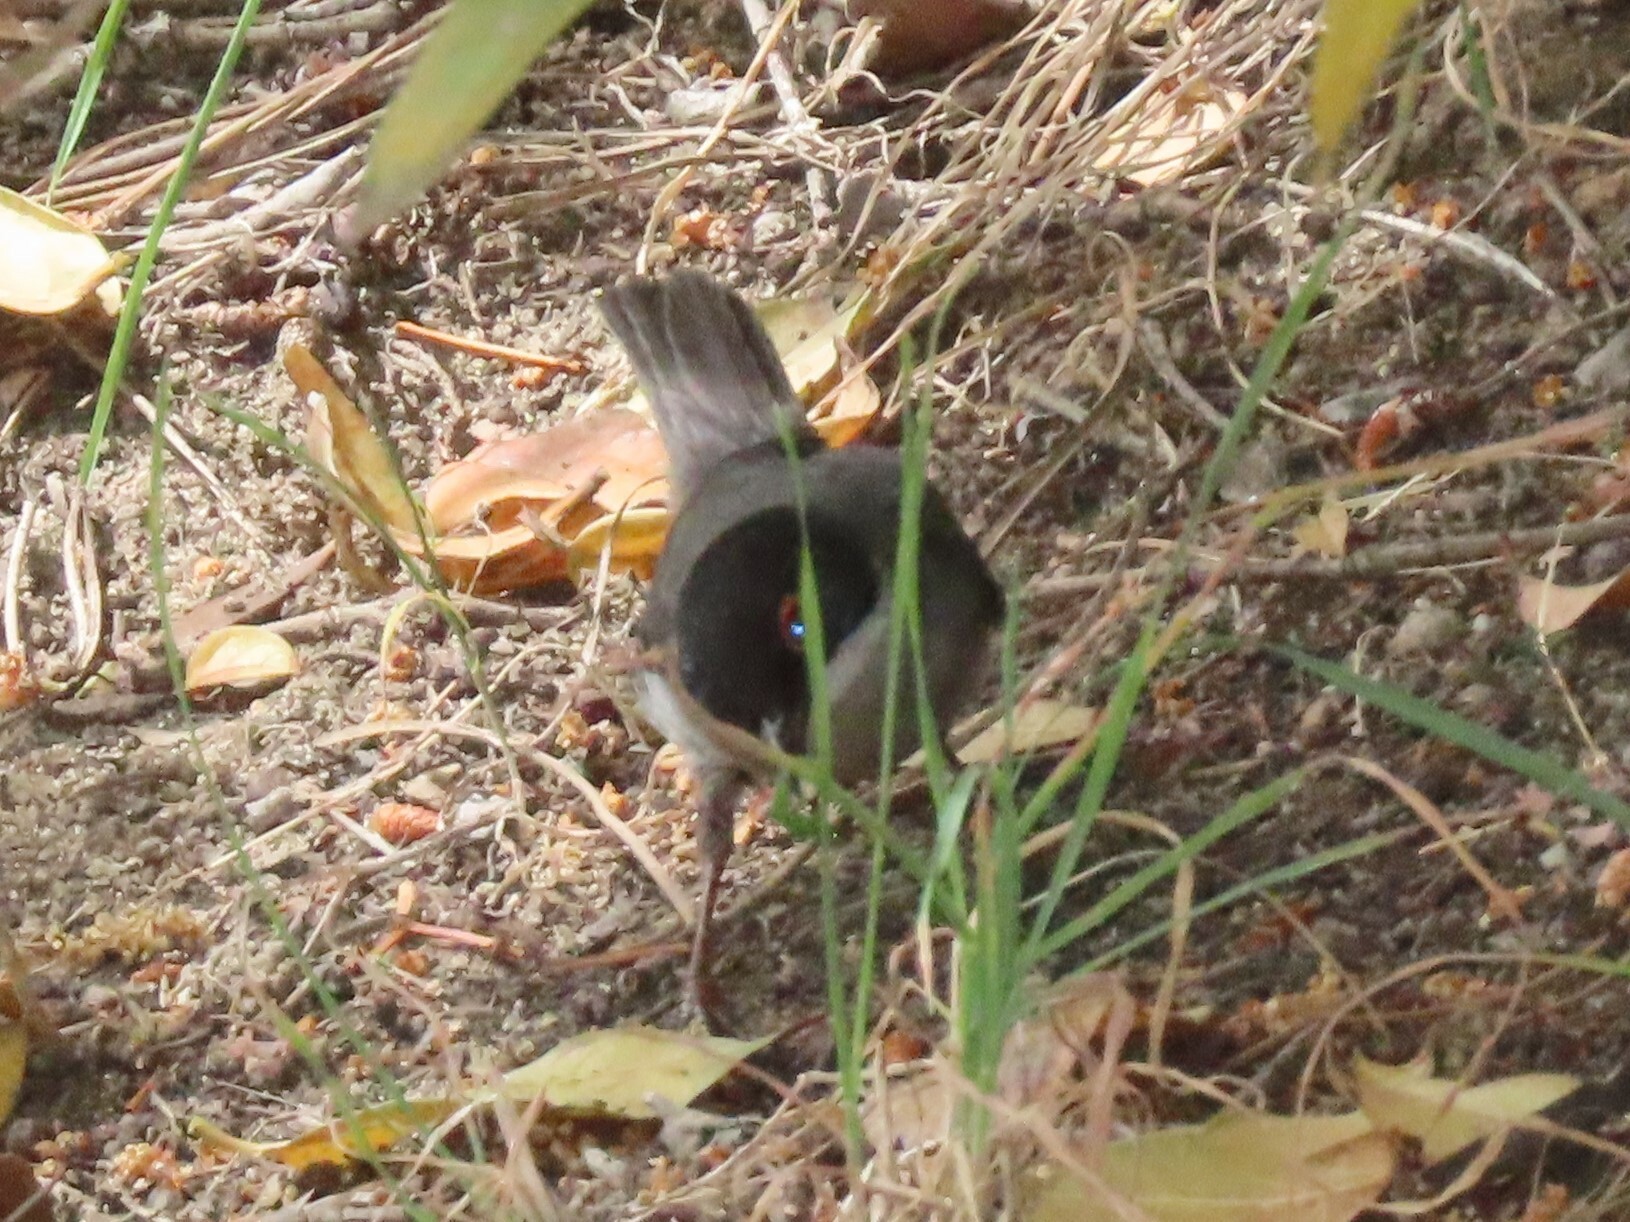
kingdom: Animalia
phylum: Chordata
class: Aves
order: Passeriformes
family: Sylviidae
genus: Curruca
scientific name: Curruca melanocephala
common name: Sardinian warbler
